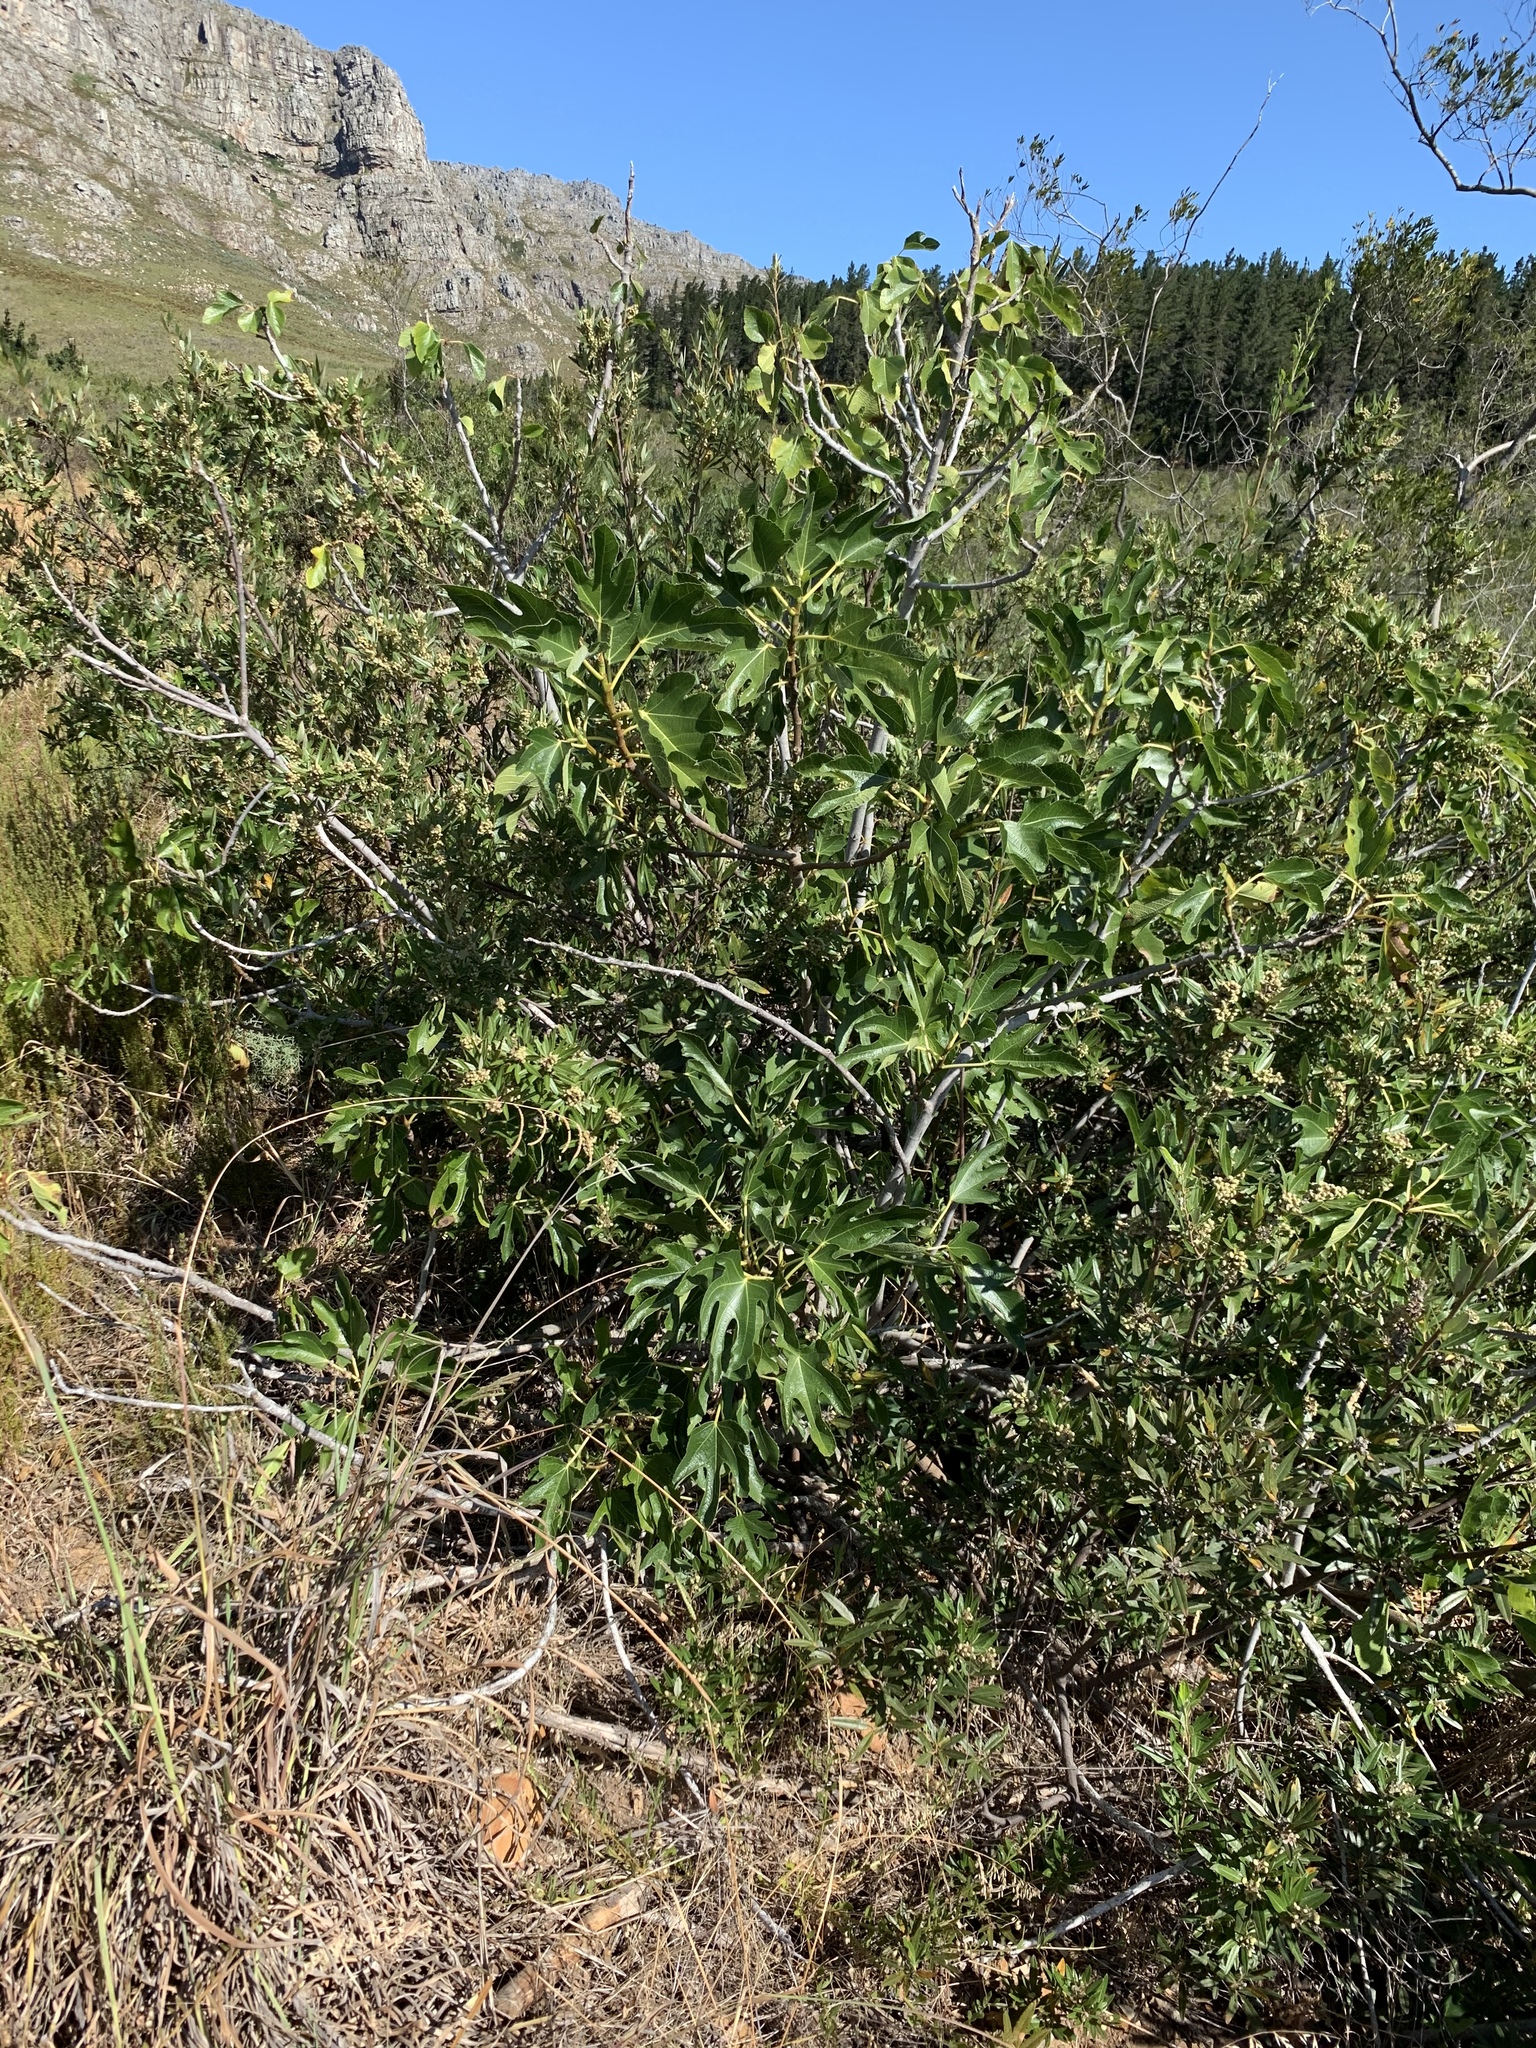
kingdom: Plantae
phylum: Tracheophyta
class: Magnoliopsida
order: Rosales
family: Moraceae
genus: Ficus
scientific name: Ficus carica
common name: Fig
